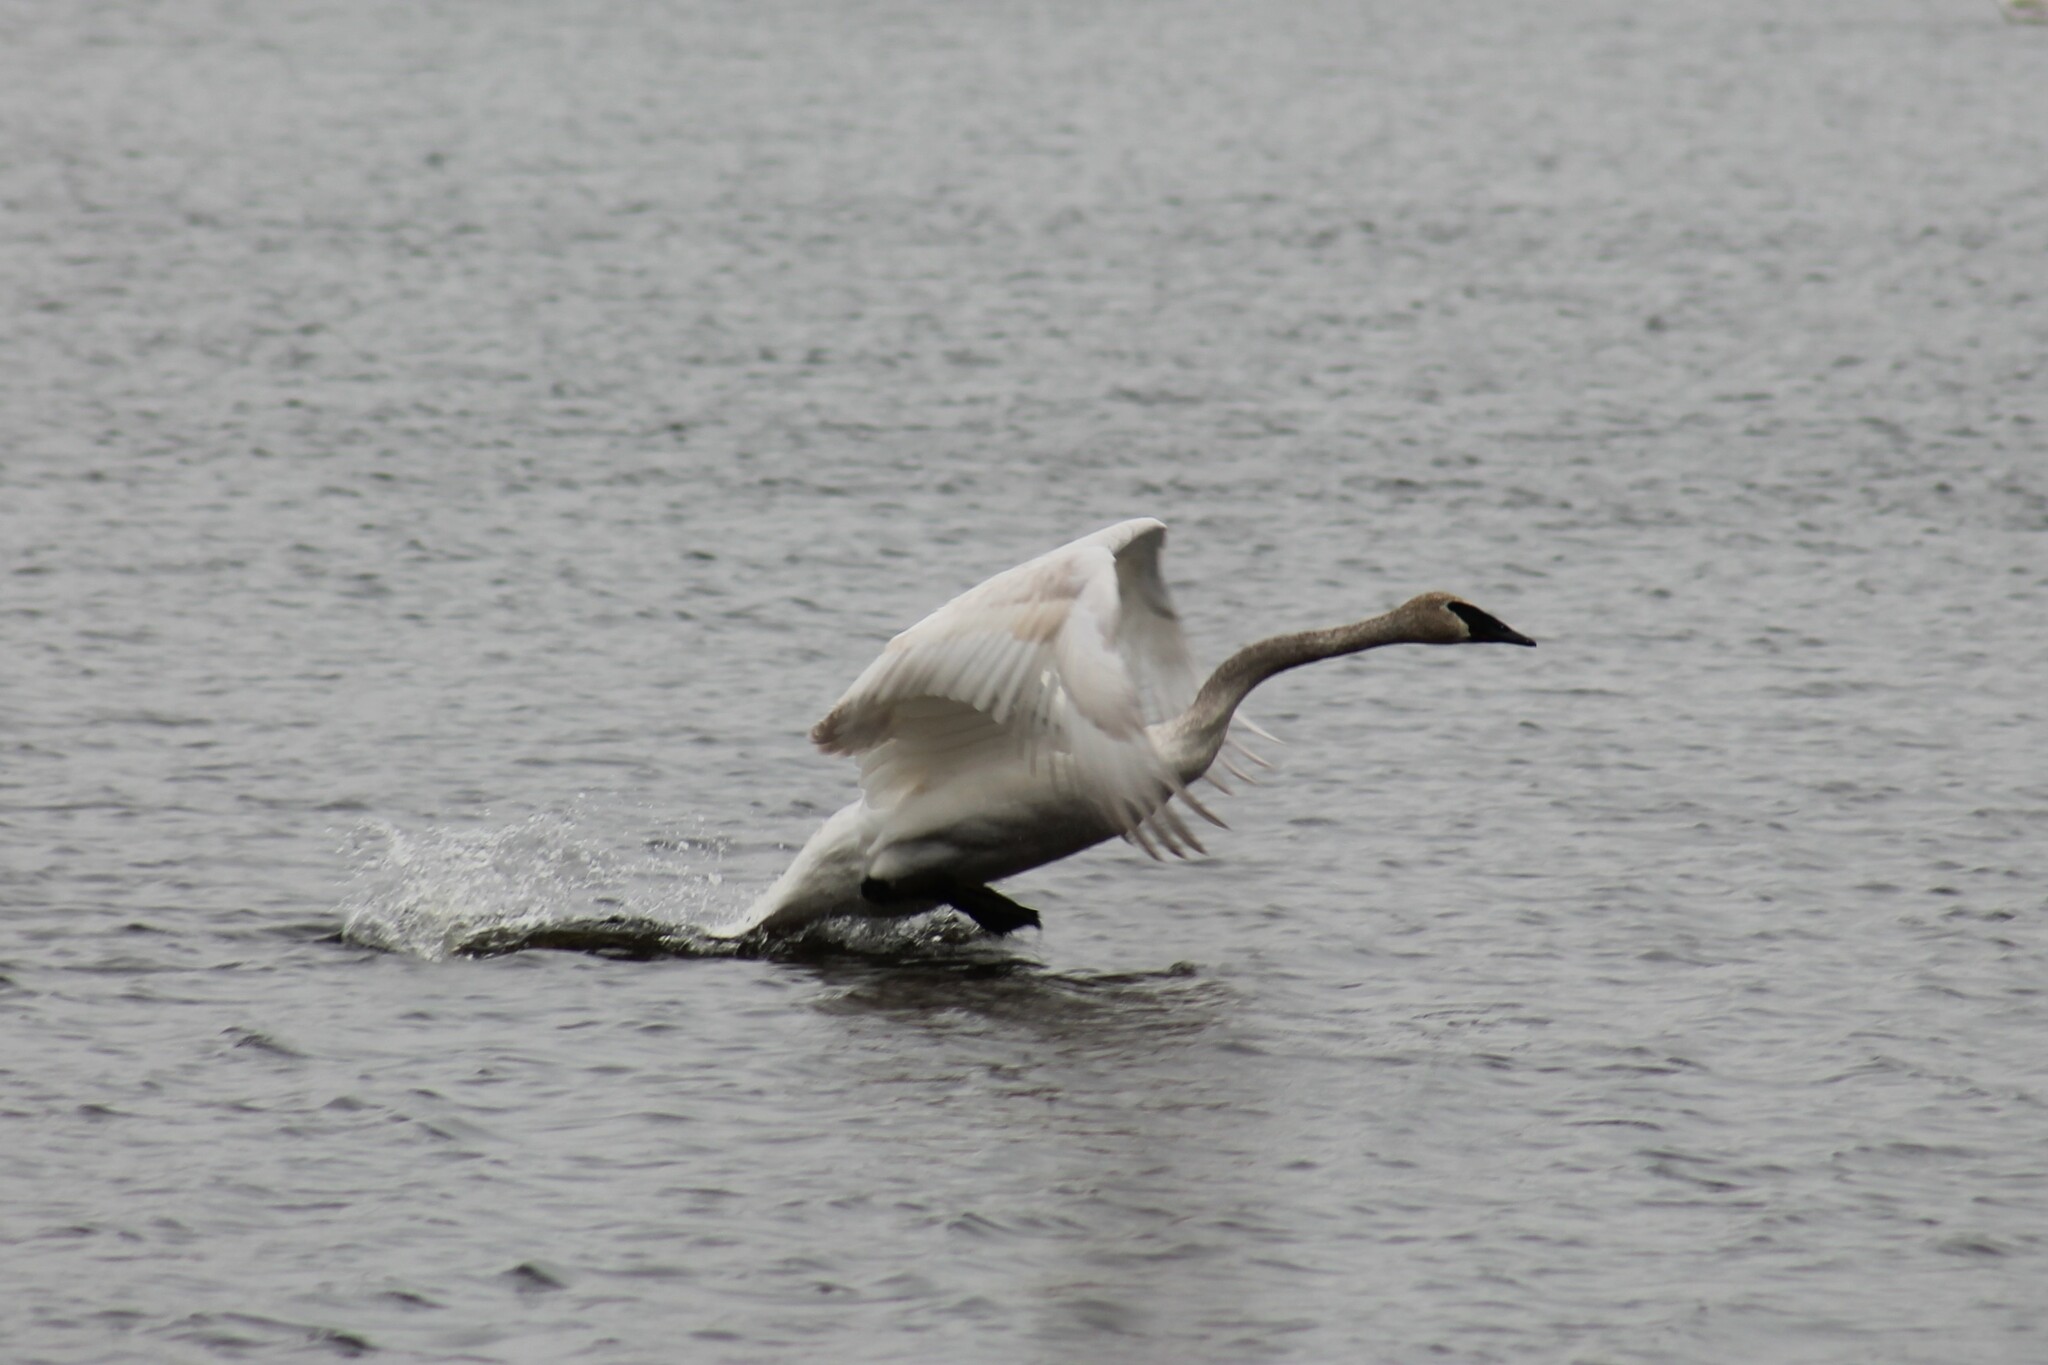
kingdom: Animalia
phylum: Chordata
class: Aves
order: Anseriformes
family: Anatidae
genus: Cygnus
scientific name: Cygnus buccinator
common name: Trumpeter swan
